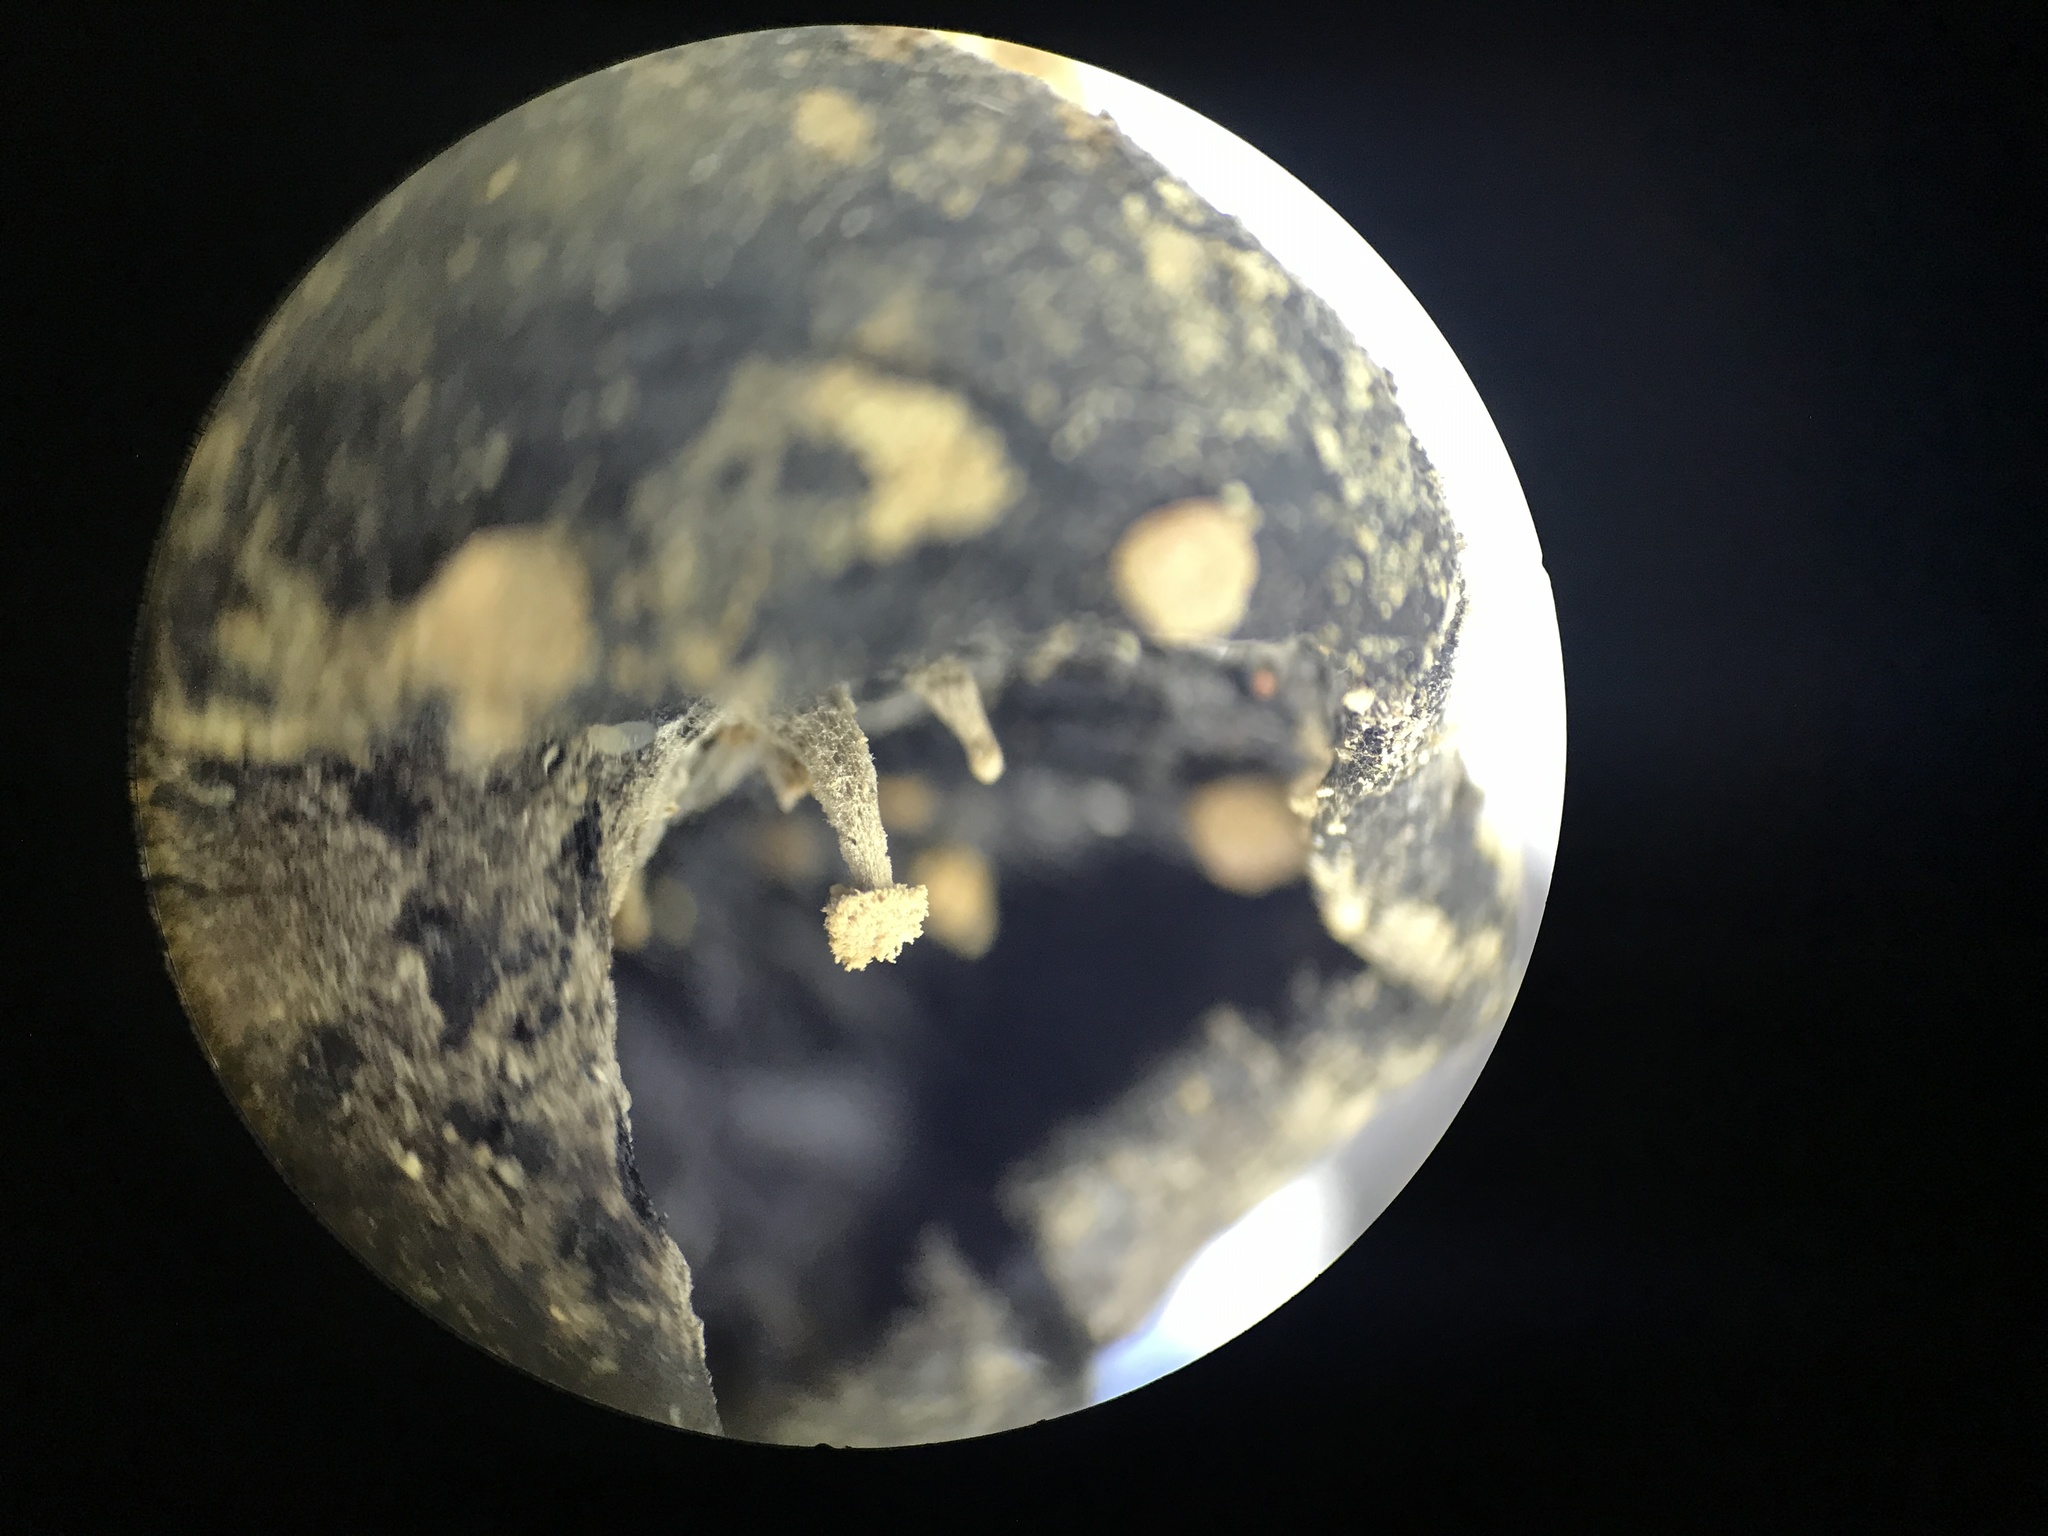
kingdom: Fungi
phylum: Basidiomycota
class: Agaricomycetes
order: Agaricales
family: Lyophyllaceae
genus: Asterophora
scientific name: Asterophora lycoperdoides
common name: Pick-a-back toadstool
